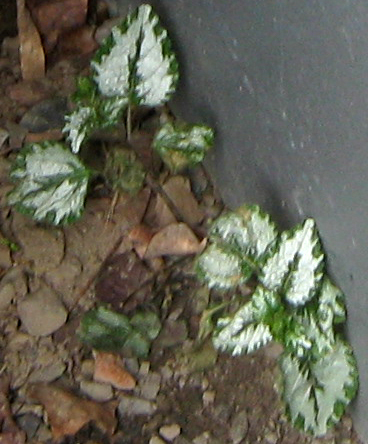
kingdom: Plantae
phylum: Tracheophyta
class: Magnoliopsida
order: Lamiales
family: Lamiaceae
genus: Lamium
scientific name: Lamium galeobdolon
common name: Yellow archangel
